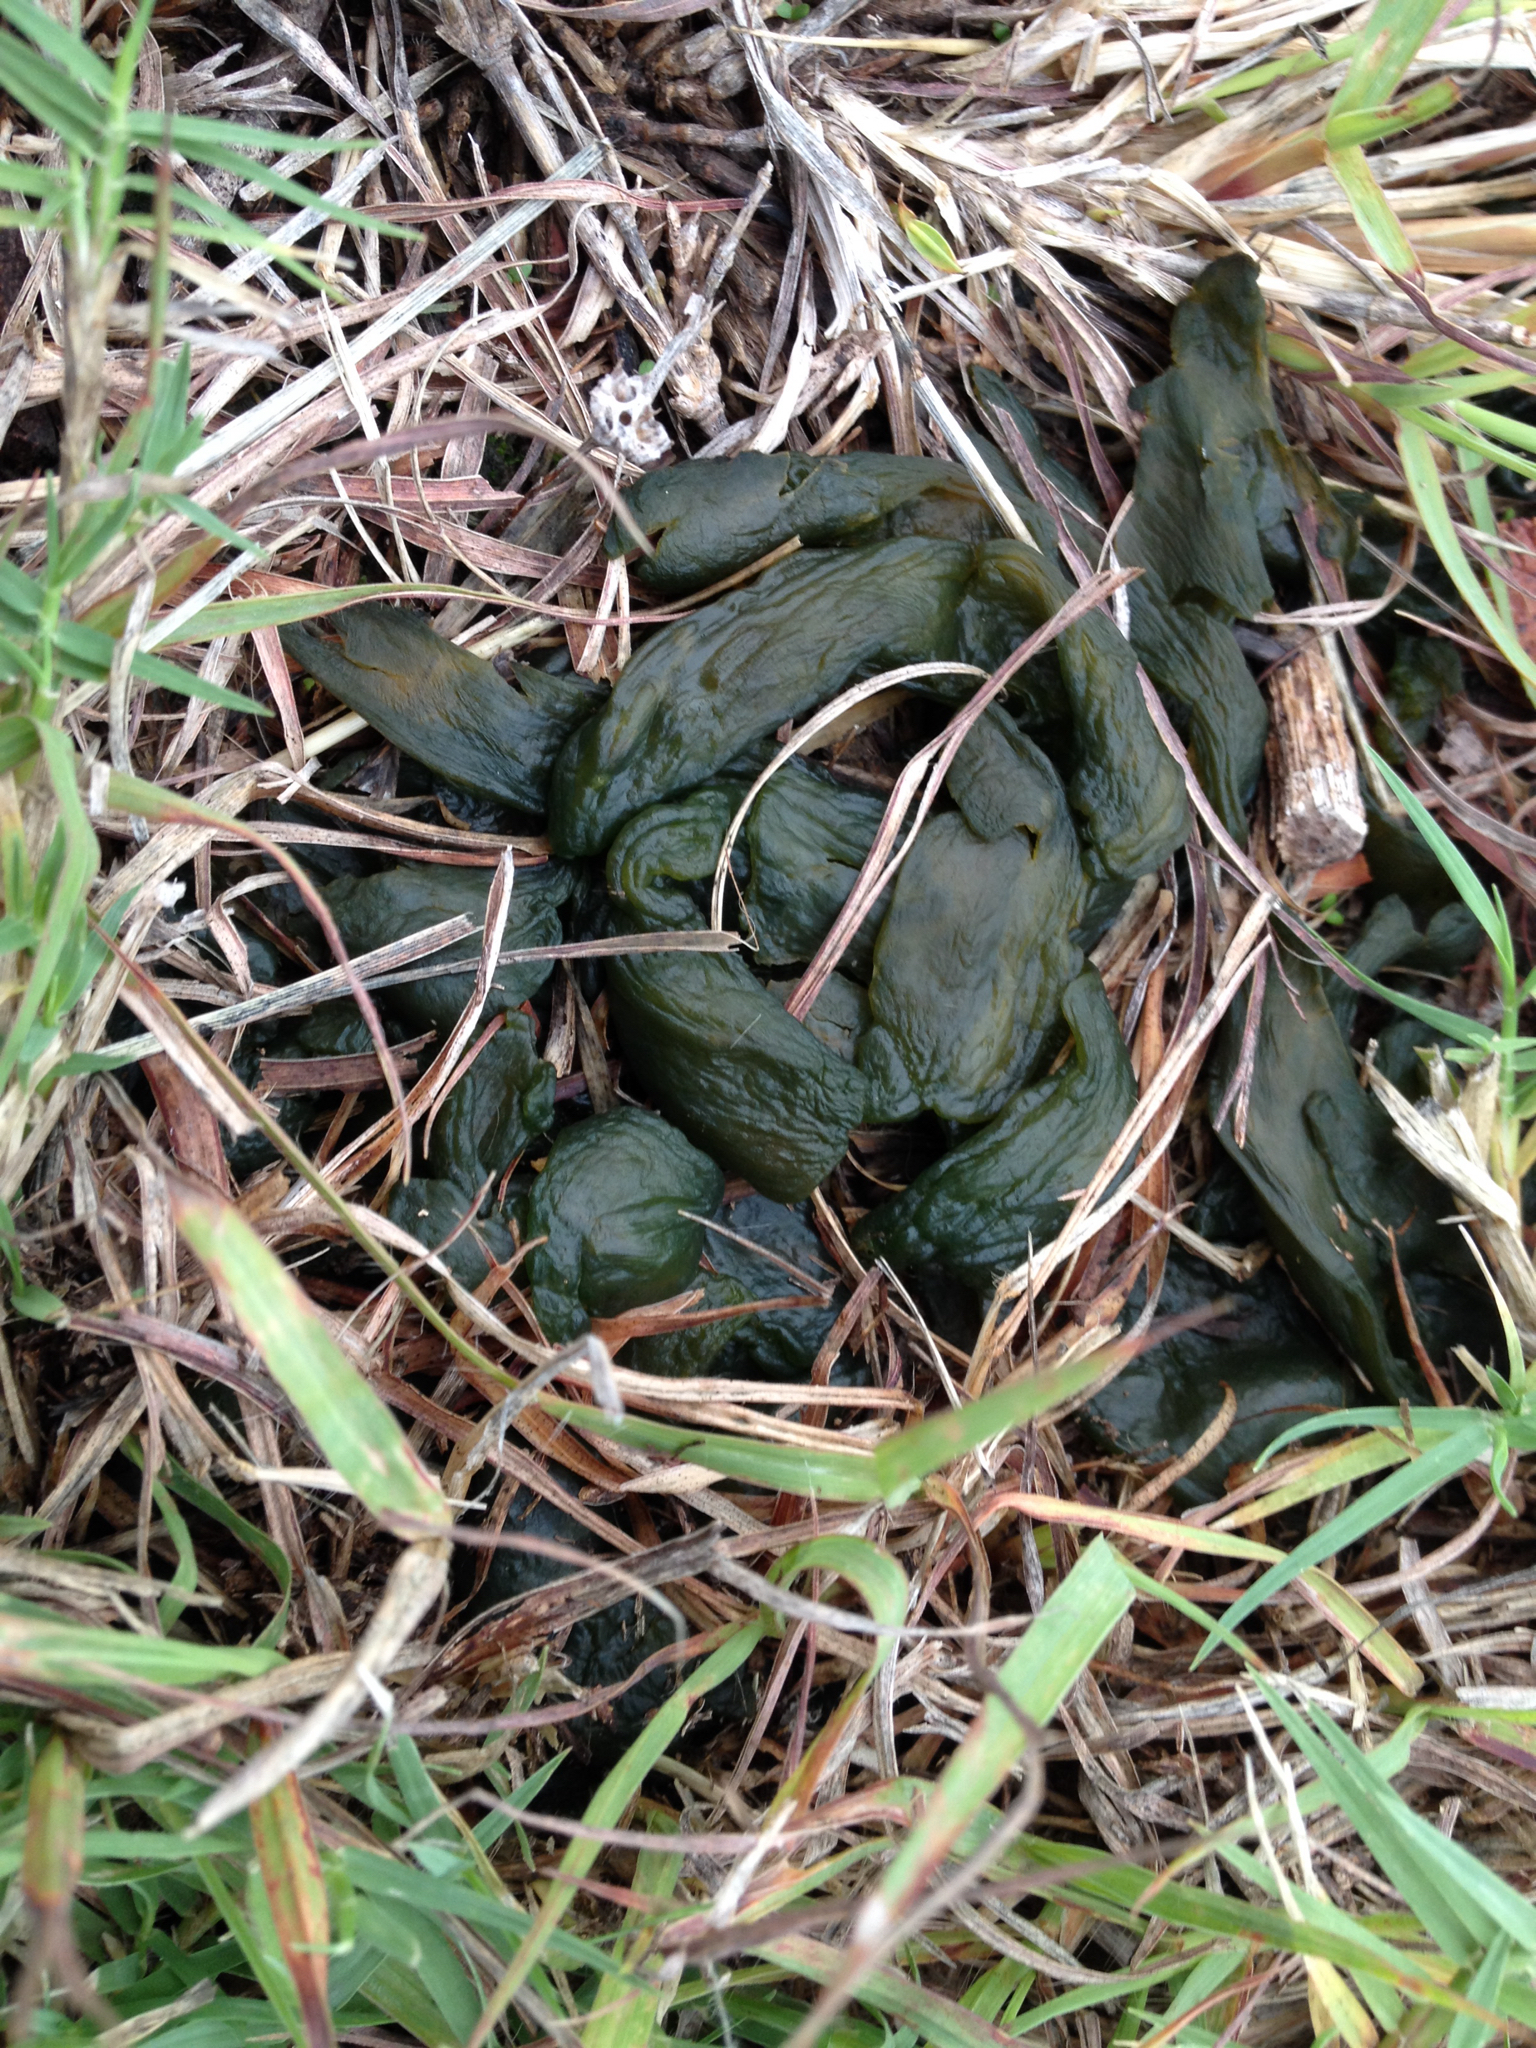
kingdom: Bacteria
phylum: Cyanobacteria
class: Cyanobacteriia
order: Cyanobacteriales
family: Nostocaceae
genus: Nostoc
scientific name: Nostoc commune
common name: Star jelly
